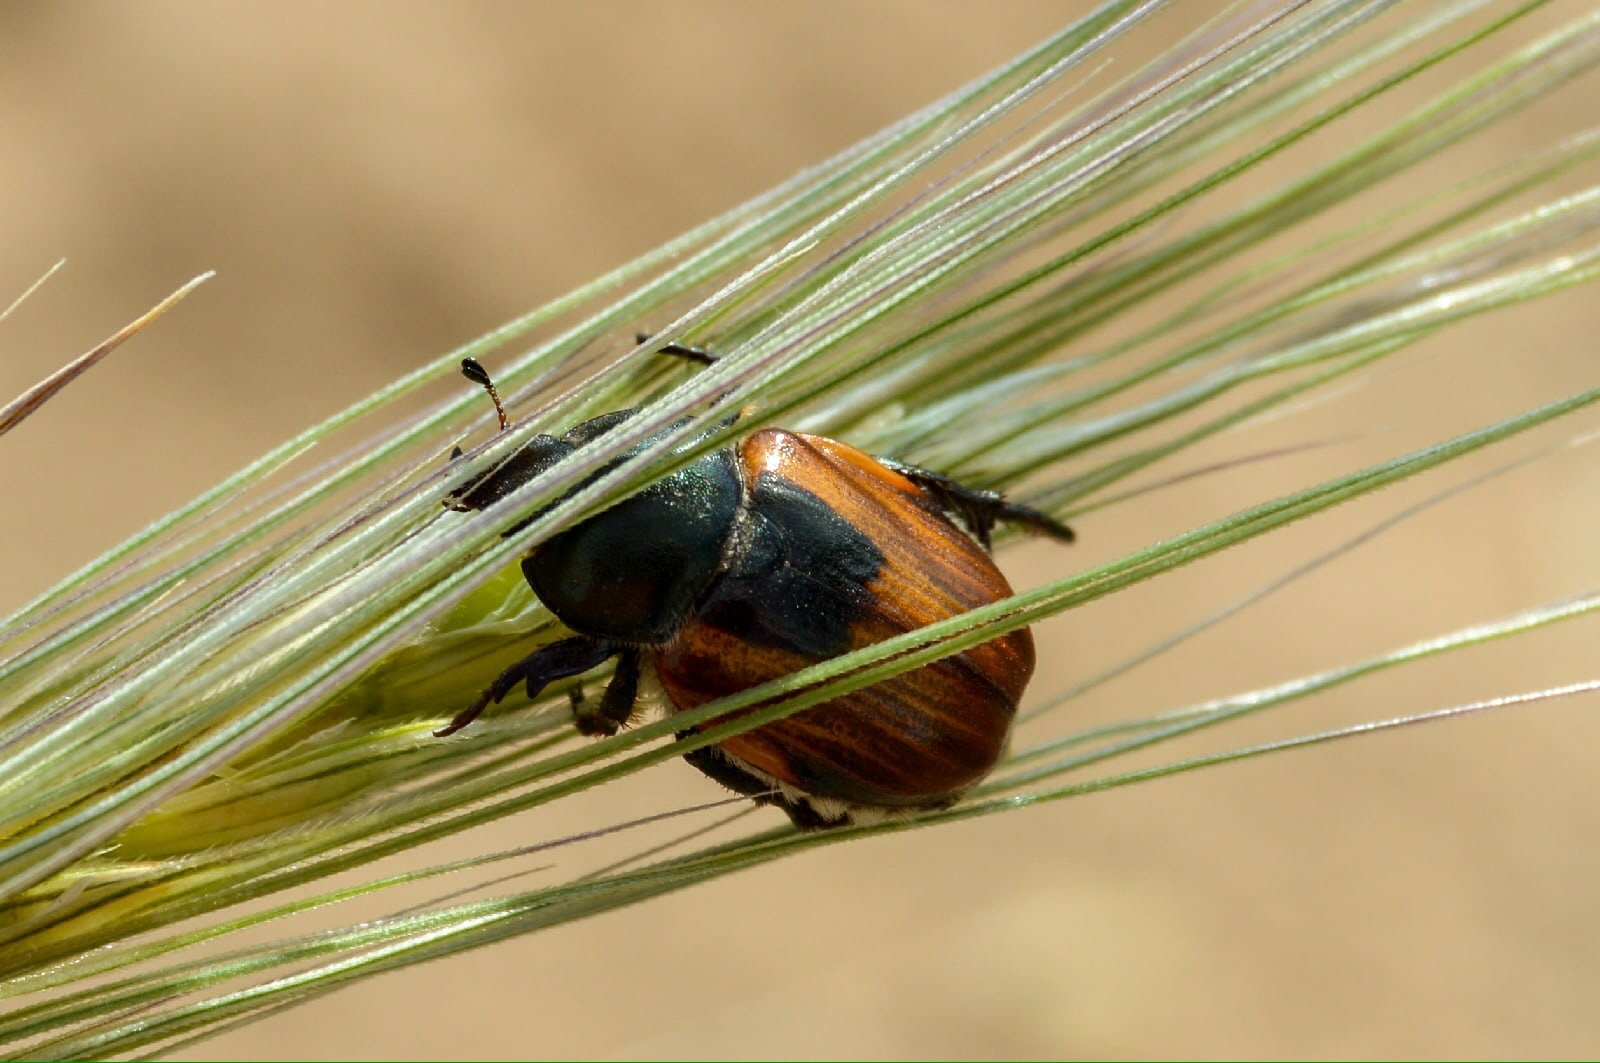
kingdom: Animalia
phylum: Arthropoda
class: Insecta
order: Coleoptera
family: Scarabaeidae
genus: Anisoplia
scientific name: Anisoplia austriaca
